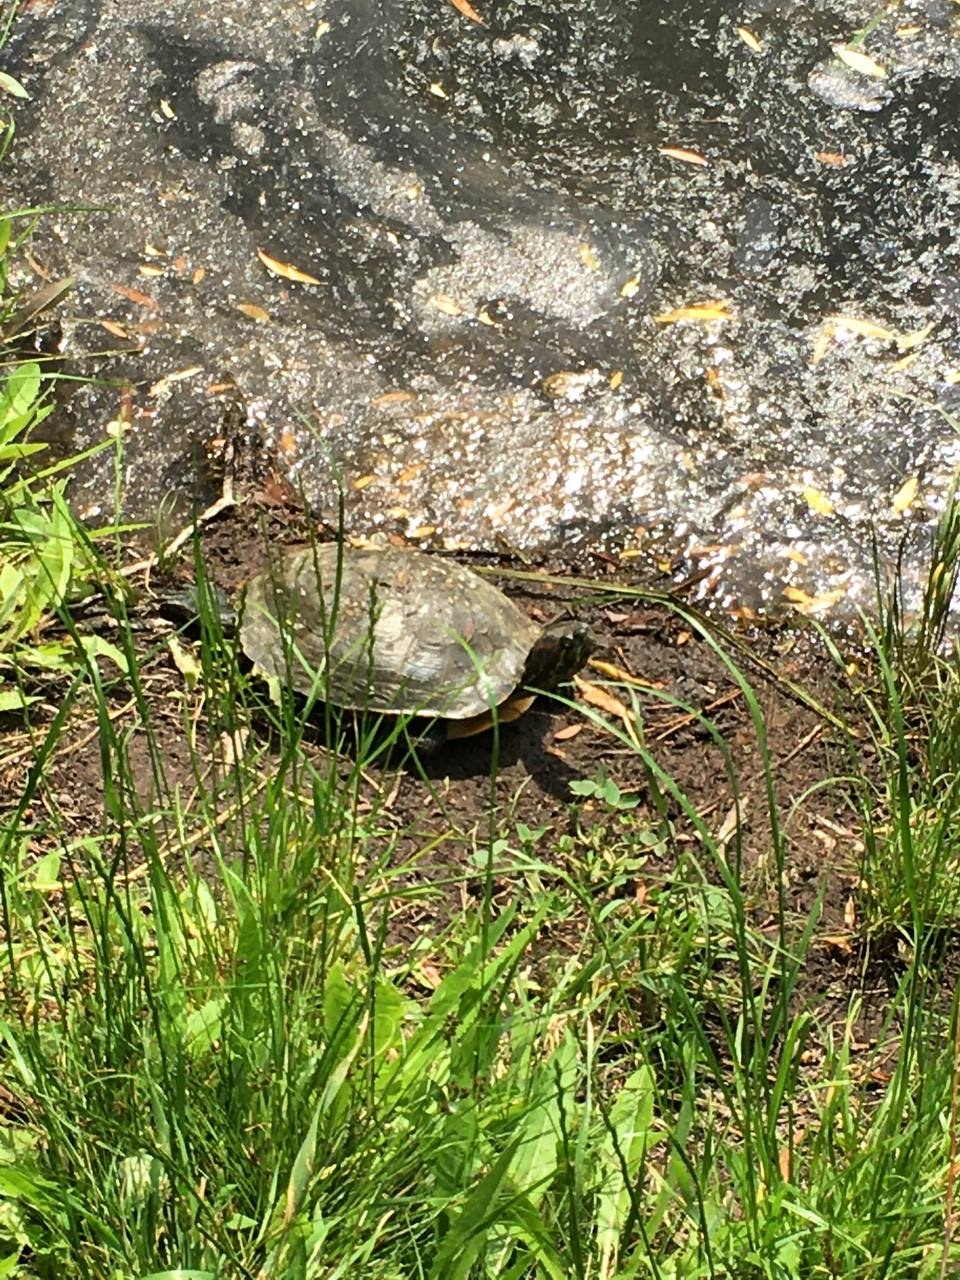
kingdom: Animalia
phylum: Chordata
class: Testudines
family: Emydidae
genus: Trachemys
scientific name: Trachemys scripta
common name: Slider
